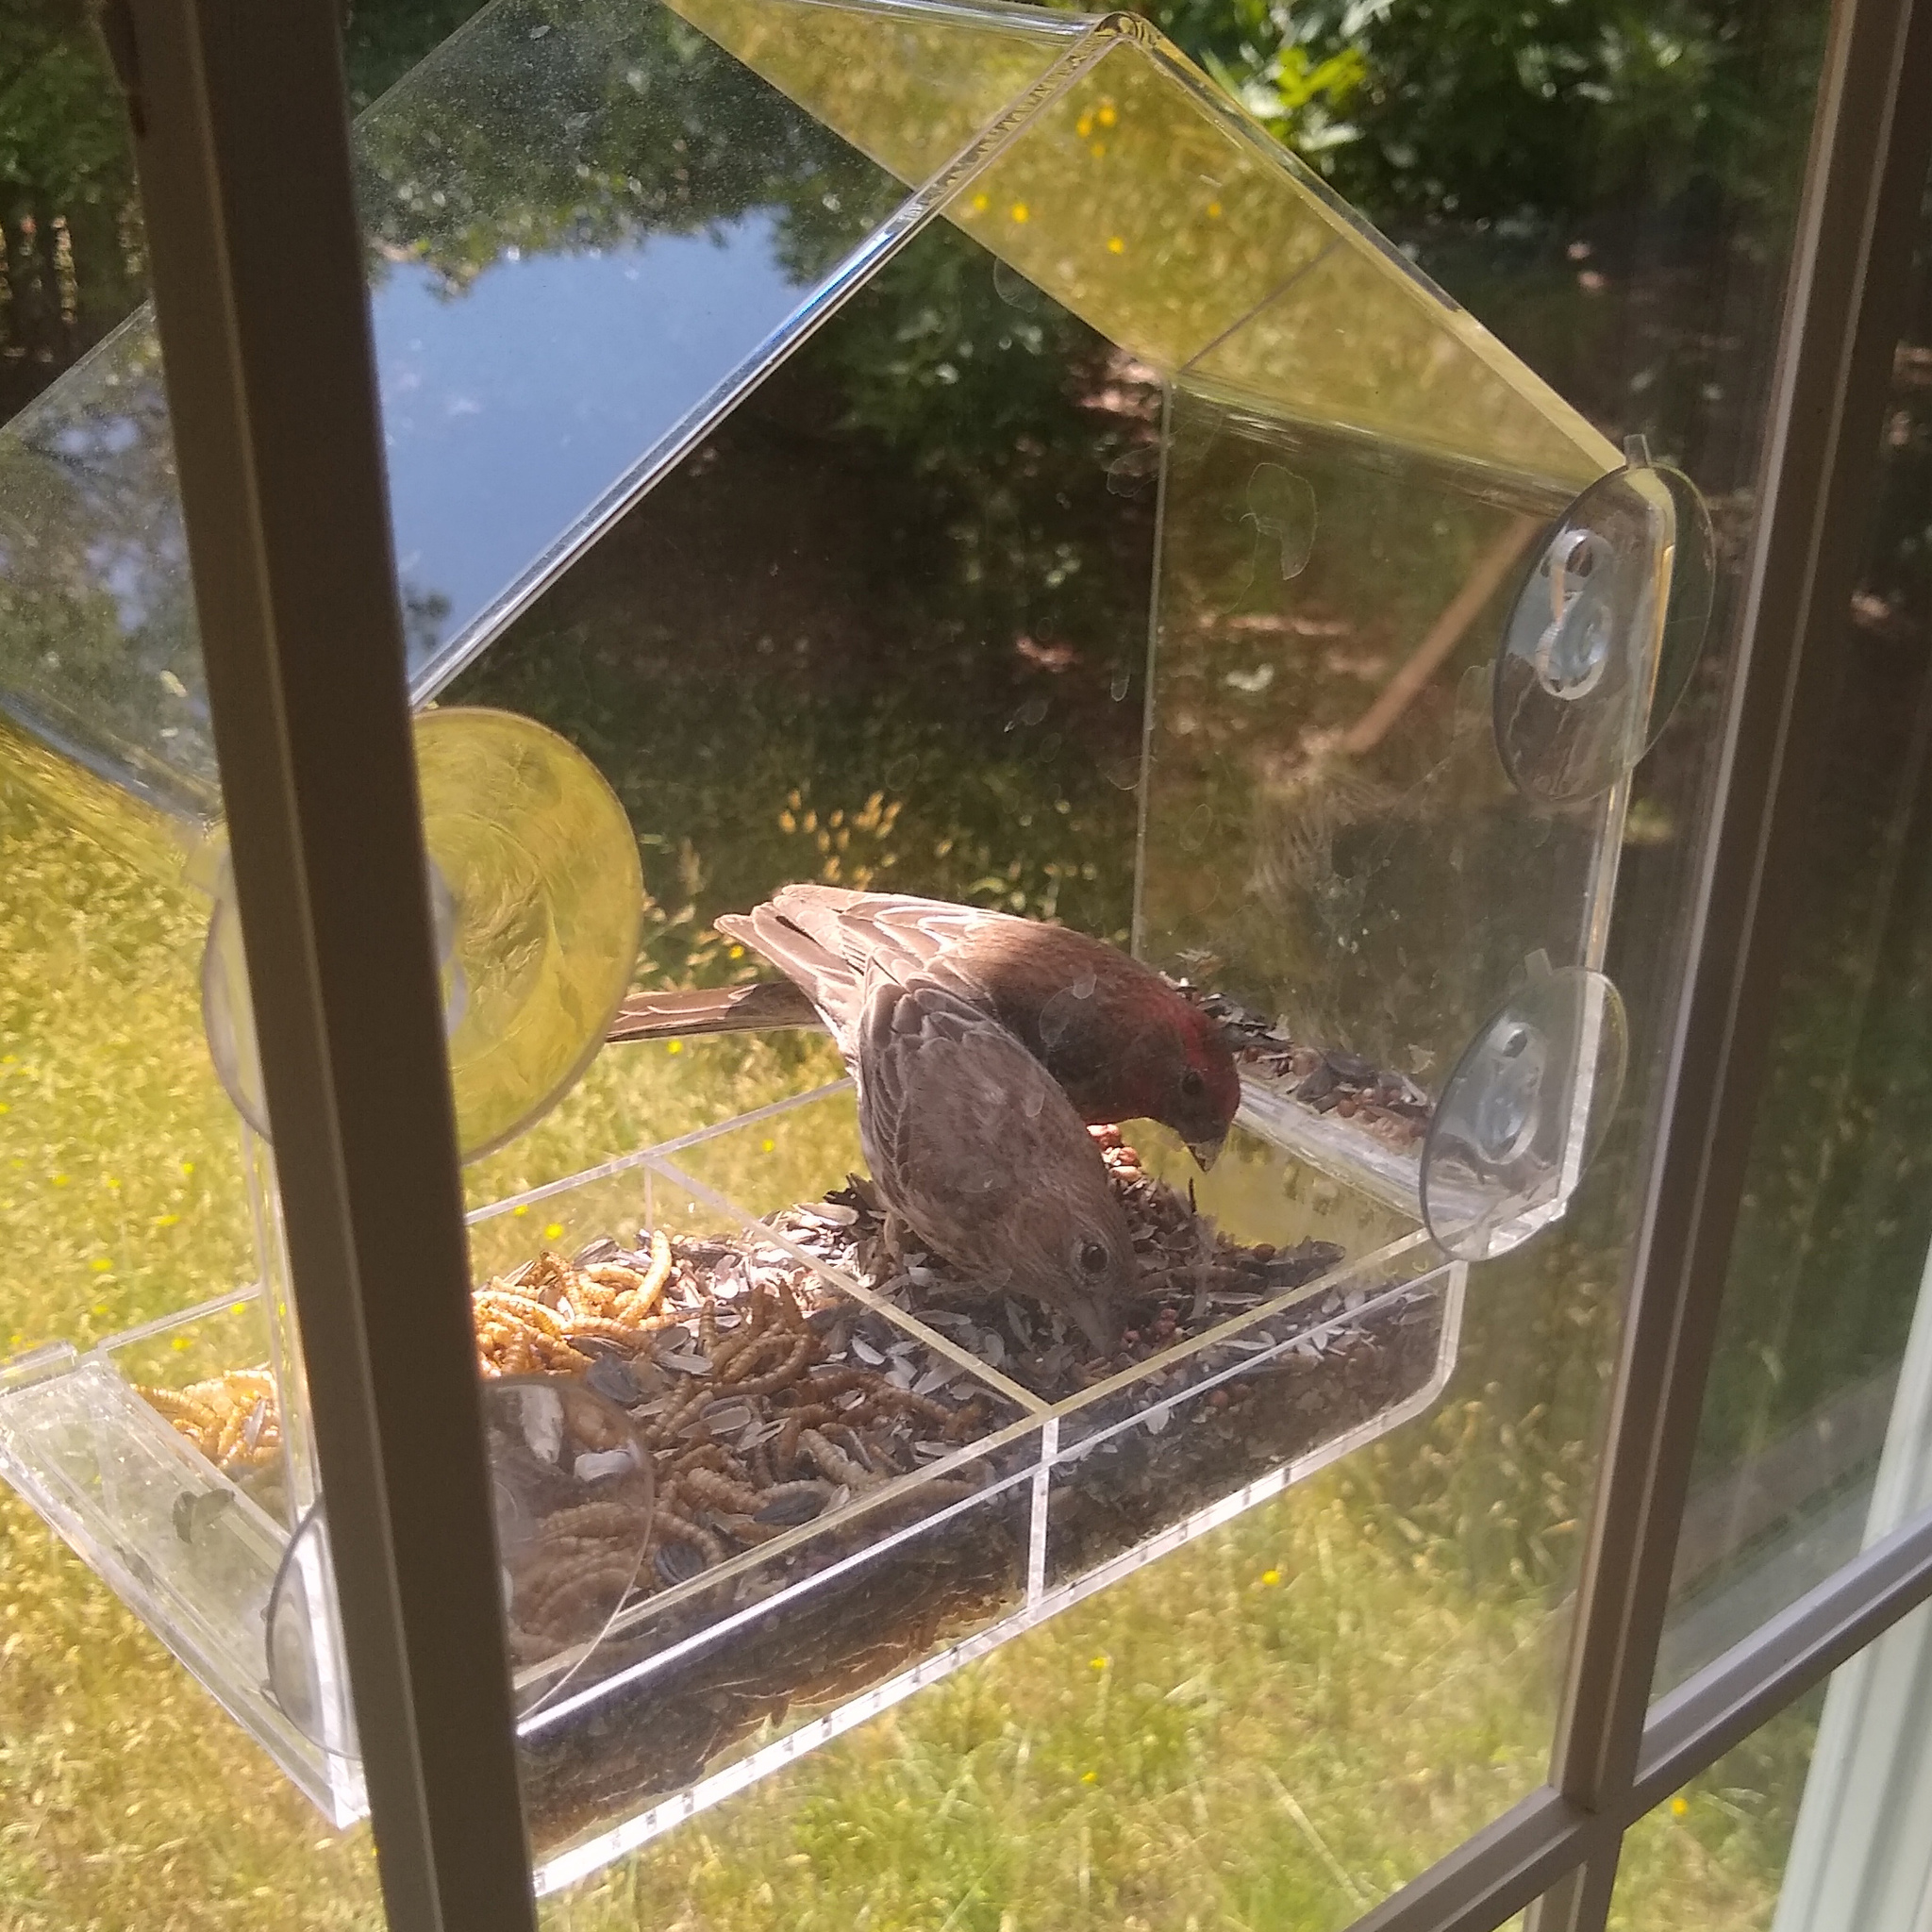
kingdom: Animalia
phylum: Chordata
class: Aves
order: Passeriformes
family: Fringillidae
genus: Haemorhous
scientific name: Haemorhous mexicanus
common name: House finch
